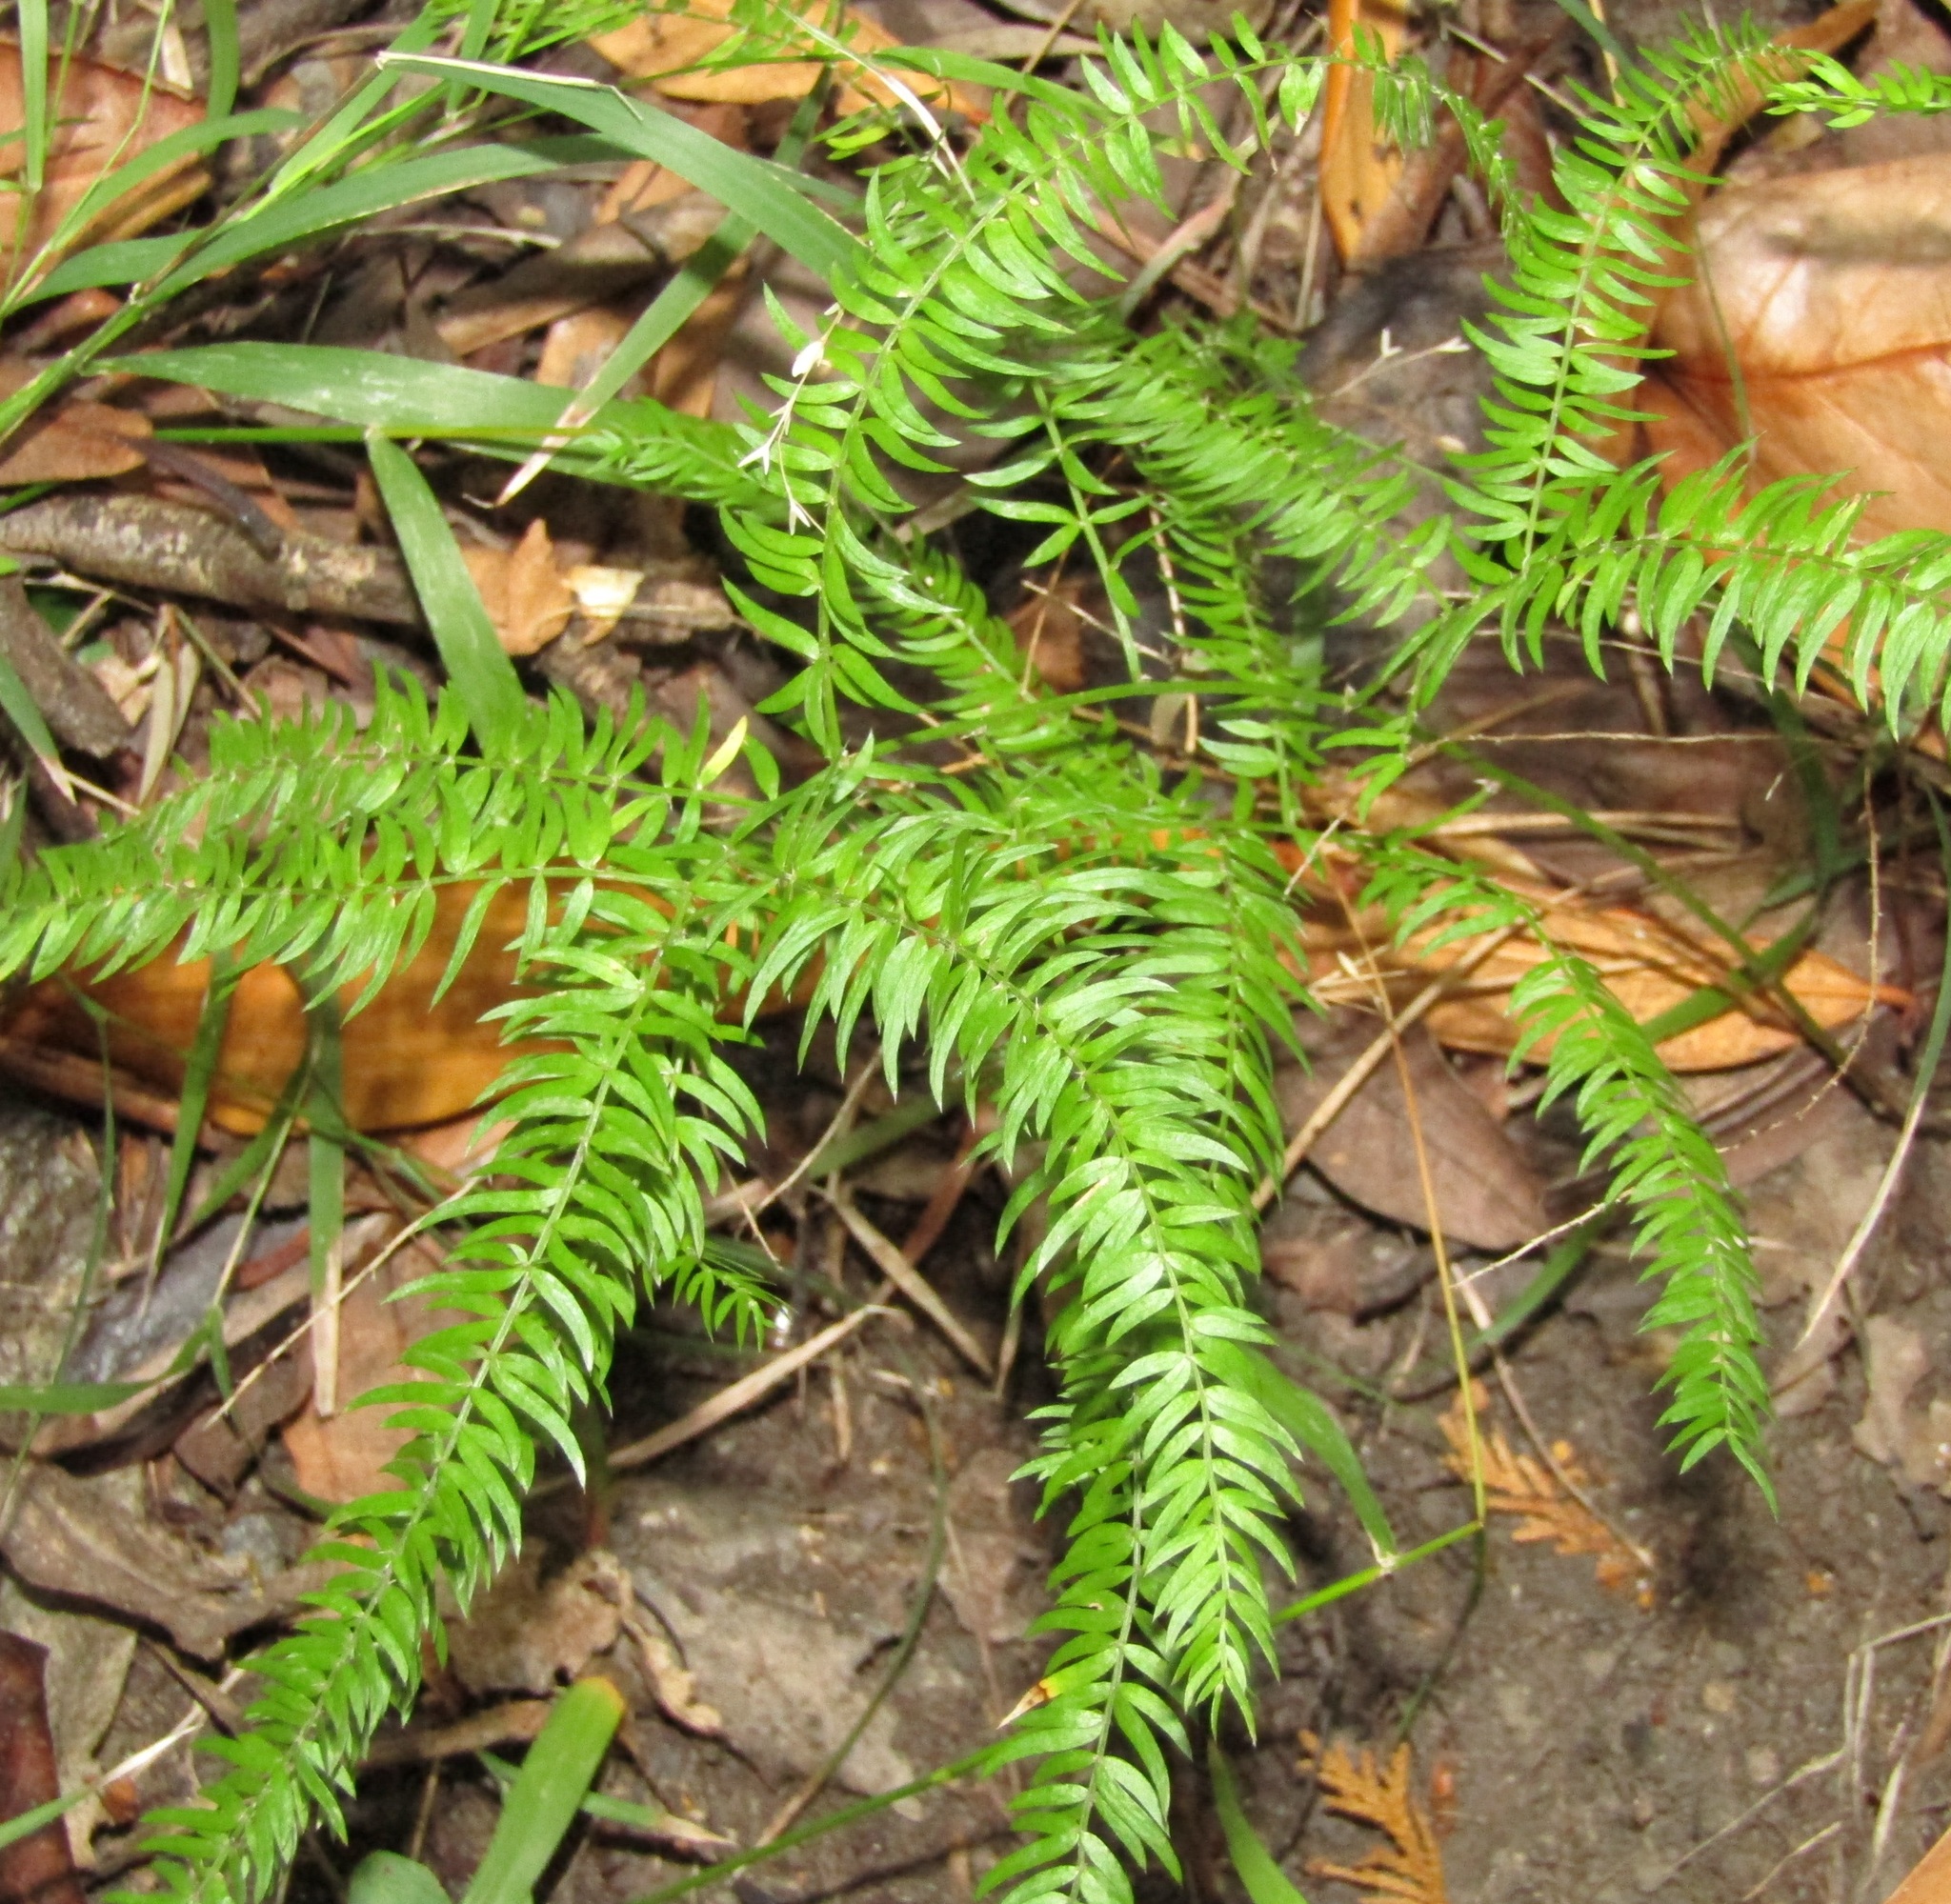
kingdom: Plantae
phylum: Tracheophyta
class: Liliopsida
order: Asparagales
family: Asparagaceae
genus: Asparagus
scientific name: Asparagus scandens
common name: Asparagus-fern
